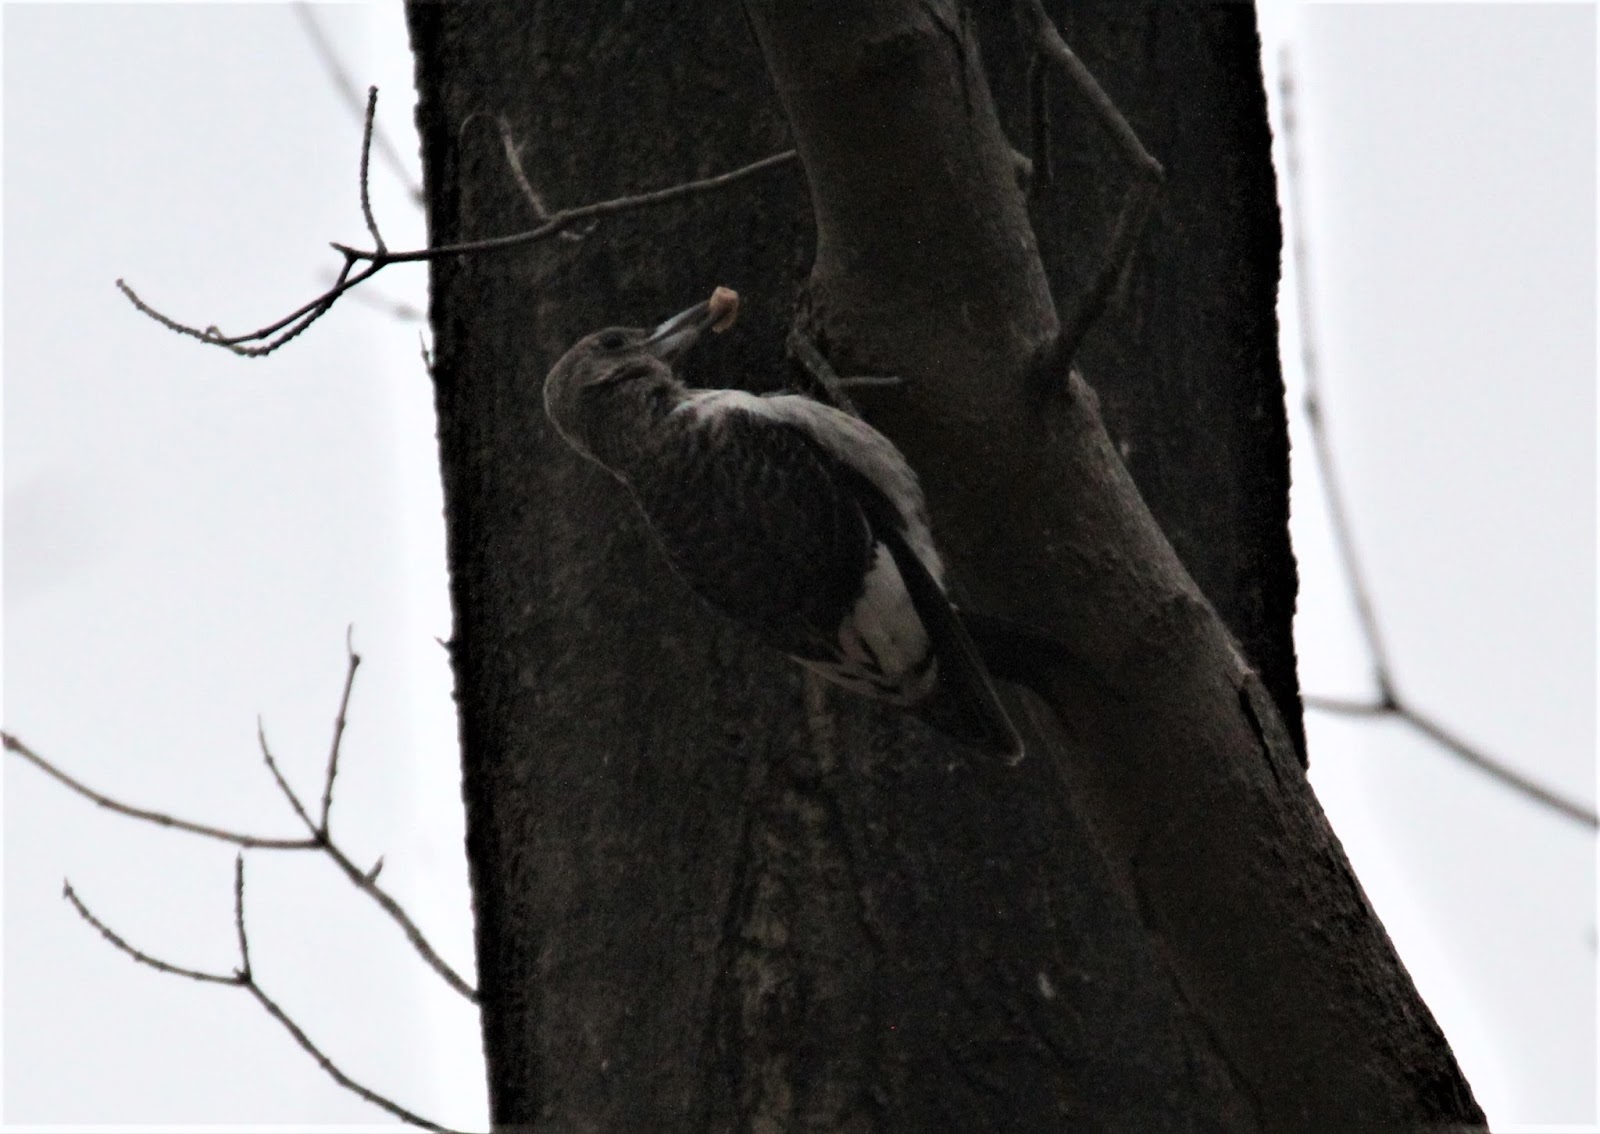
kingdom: Animalia
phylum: Chordata
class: Aves
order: Piciformes
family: Picidae
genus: Melanerpes
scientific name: Melanerpes erythrocephalus
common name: Red-headed woodpecker
